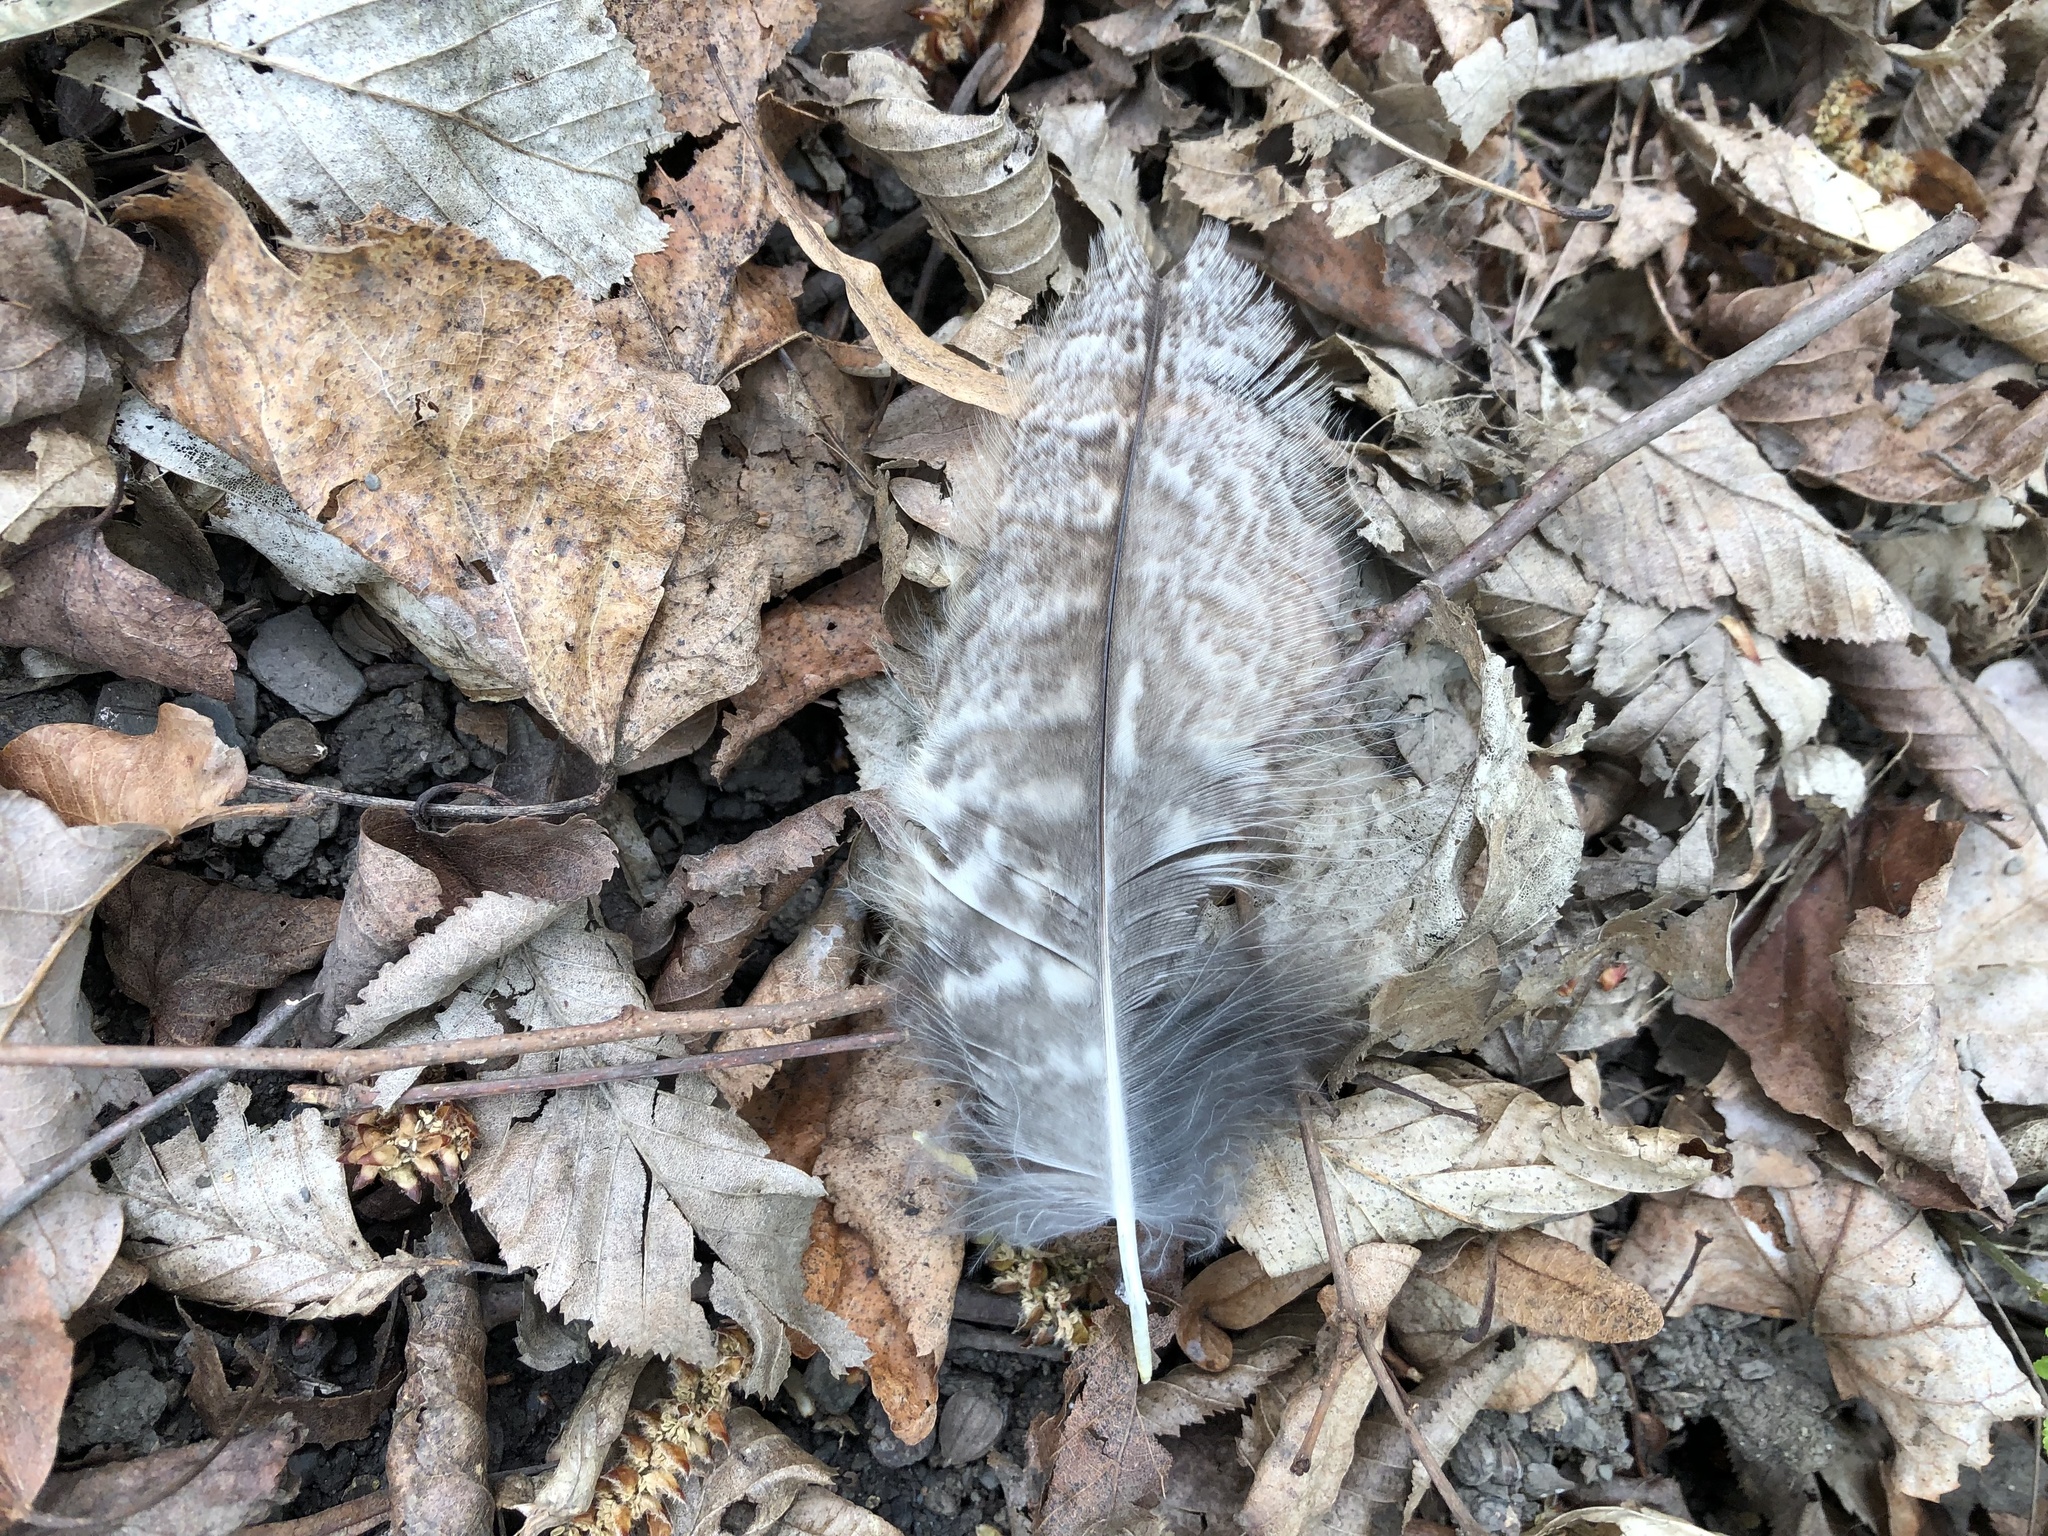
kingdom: Animalia
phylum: Chordata
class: Aves
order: Strigiformes
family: Strigidae
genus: Strix
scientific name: Strix aluco
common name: Tawny owl
